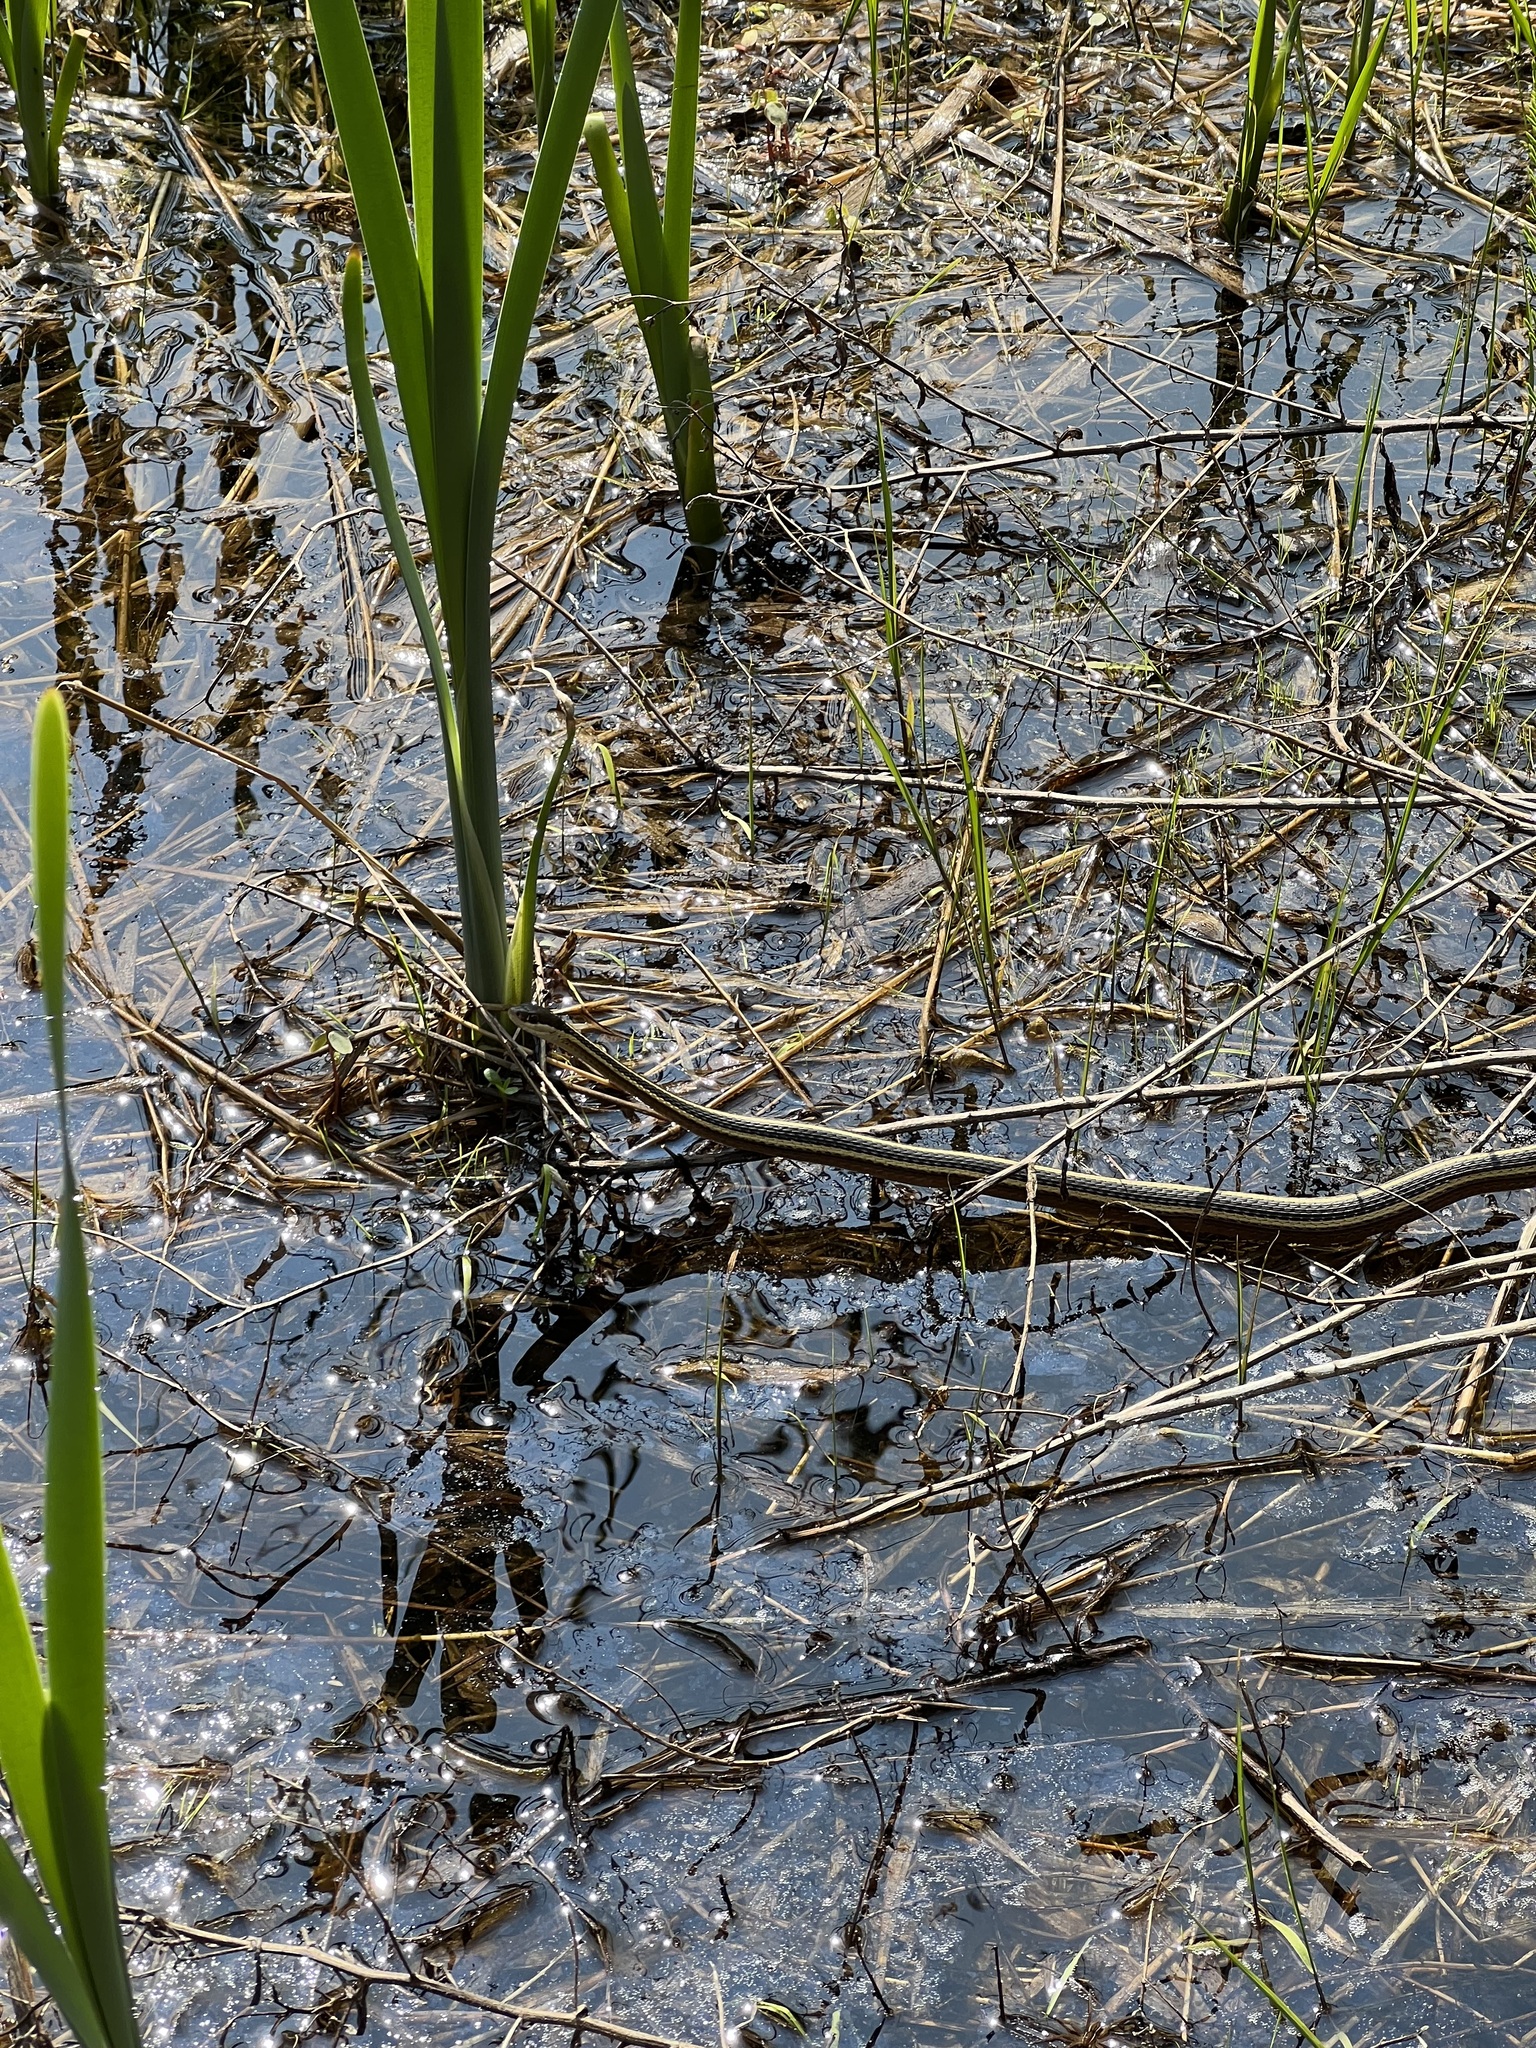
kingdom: Animalia
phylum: Chordata
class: Squamata
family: Colubridae
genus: Thamnophis
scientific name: Thamnophis saurita
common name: Eastern ribbonsnake
